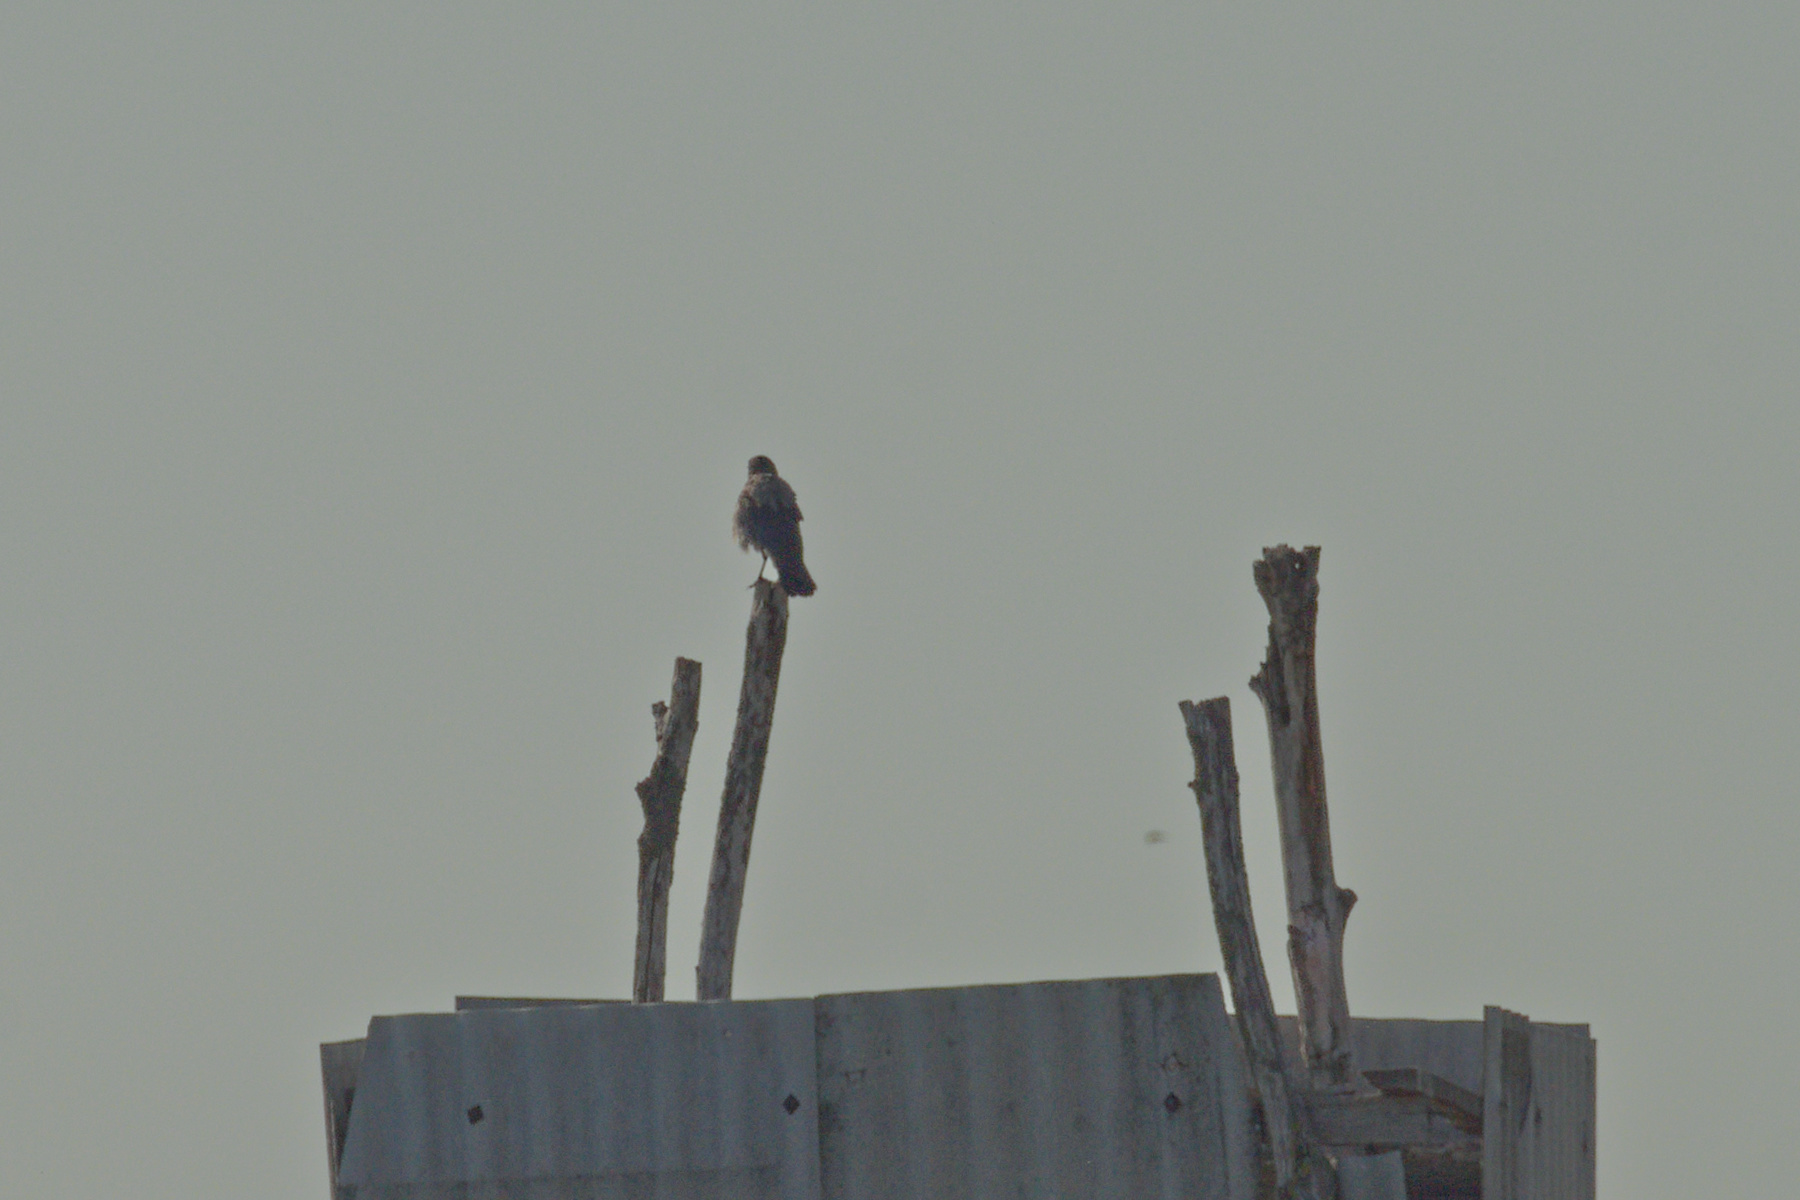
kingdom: Animalia
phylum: Chordata
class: Aves
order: Passeriformes
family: Corvidae
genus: Corvus
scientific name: Corvus cornix
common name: Hooded crow
